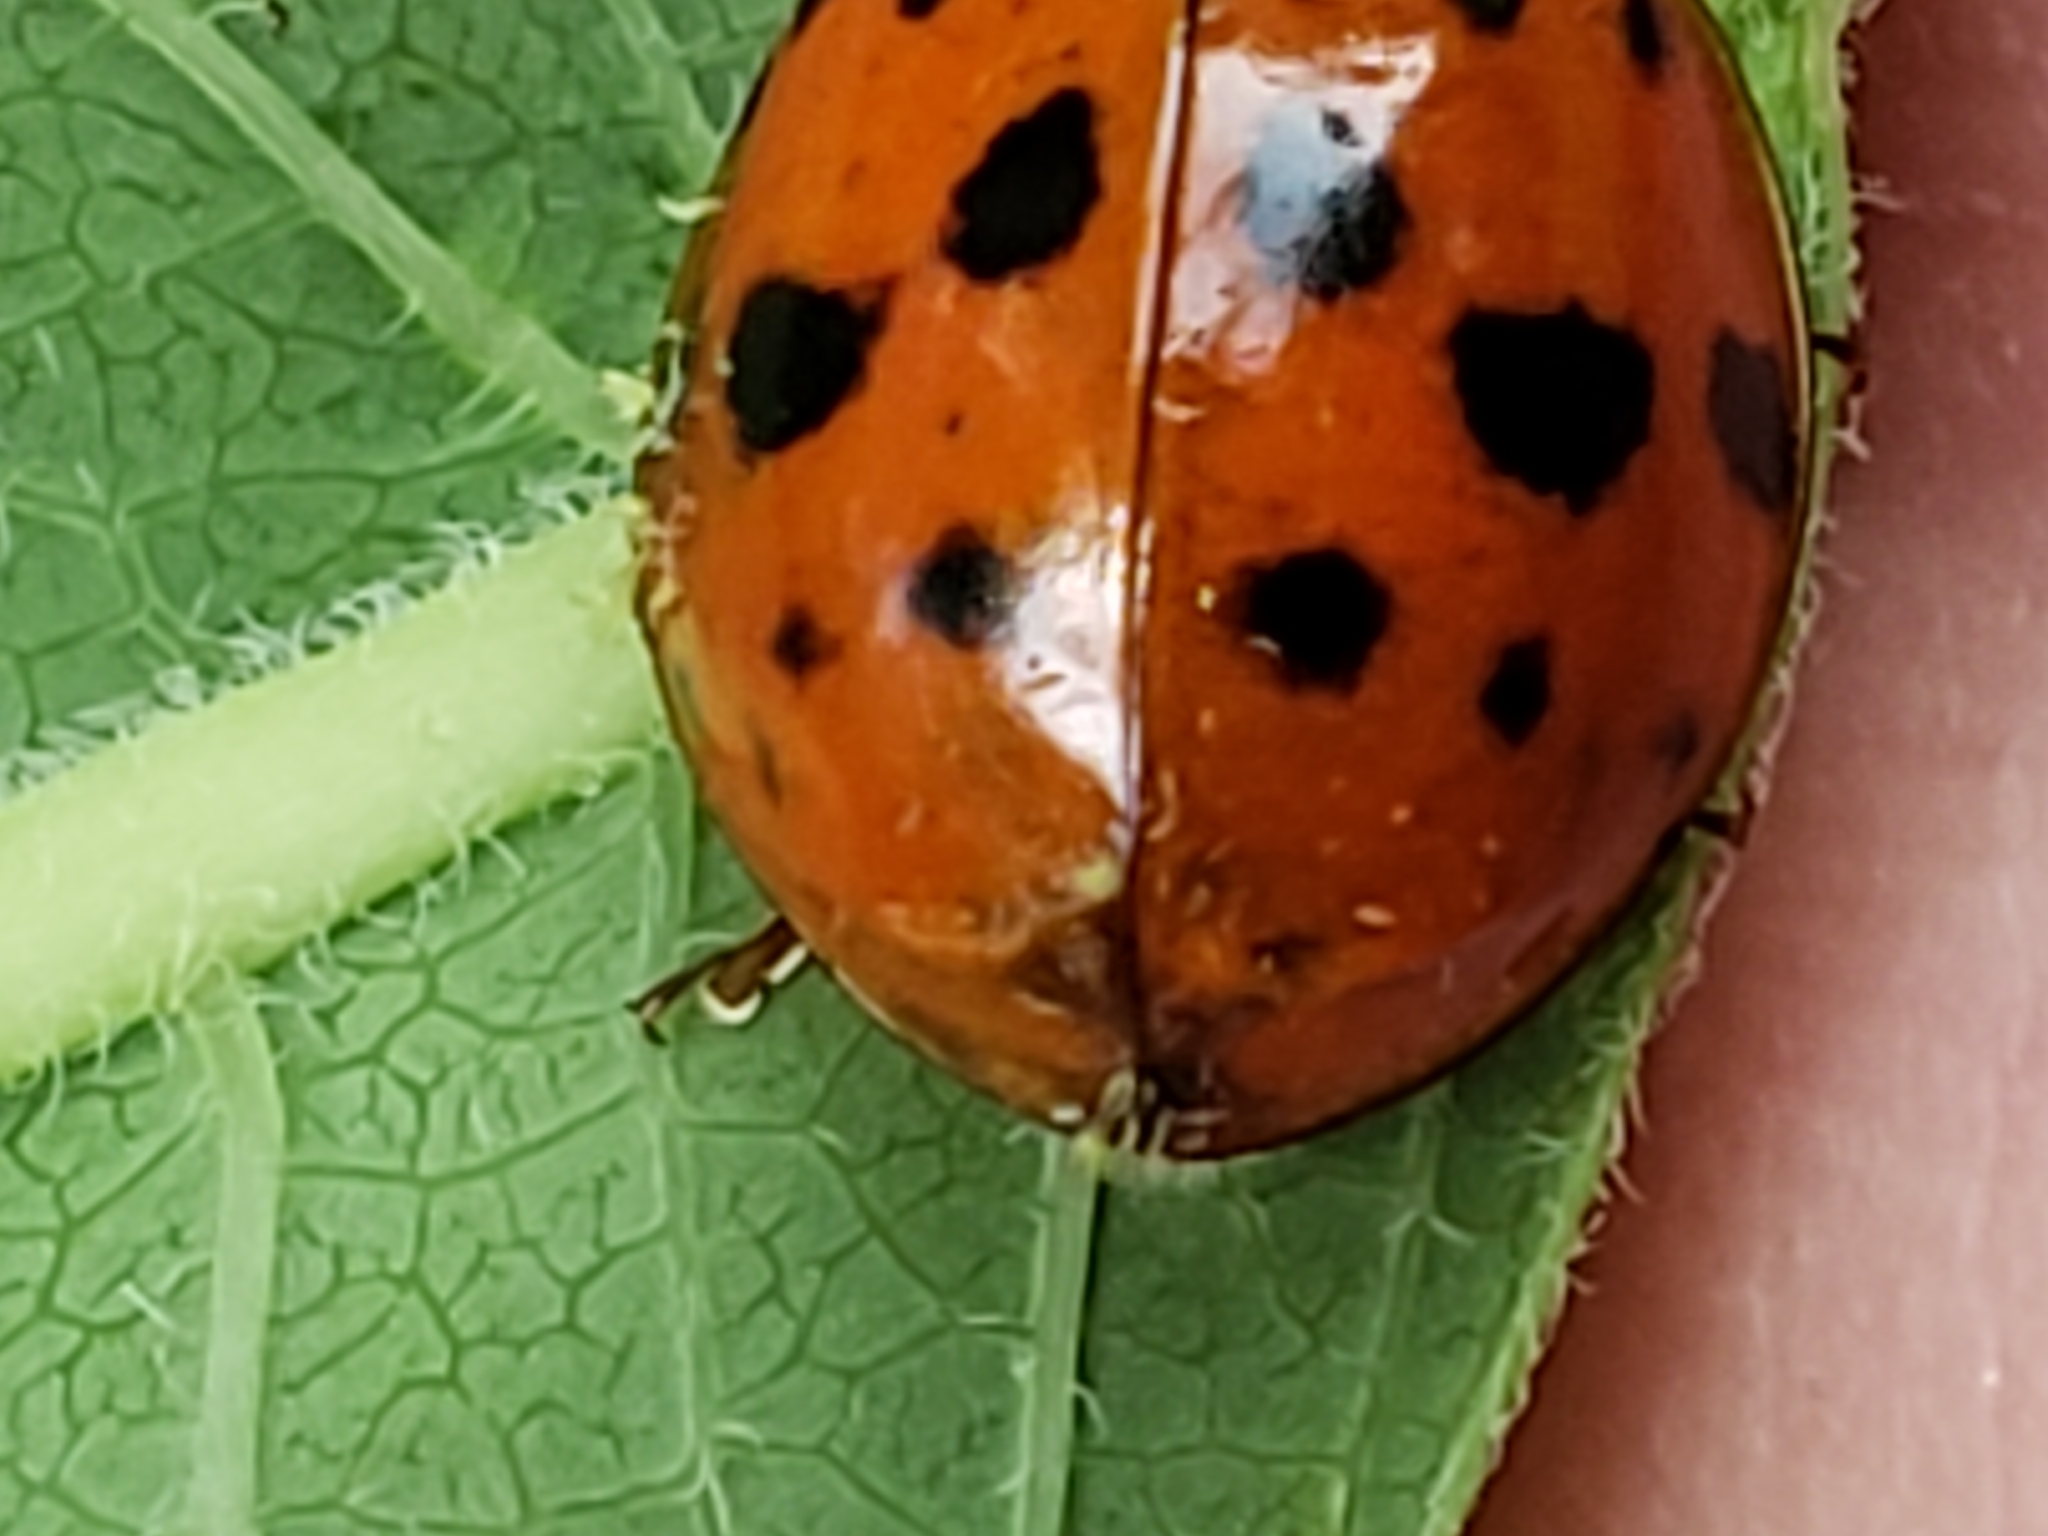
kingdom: Fungi
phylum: Ascomycota
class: Laboulbeniomycetes
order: Laboulbeniales
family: Laboulbeniaceae
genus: Hesperomyces
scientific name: Hesperomyces harmoniae
